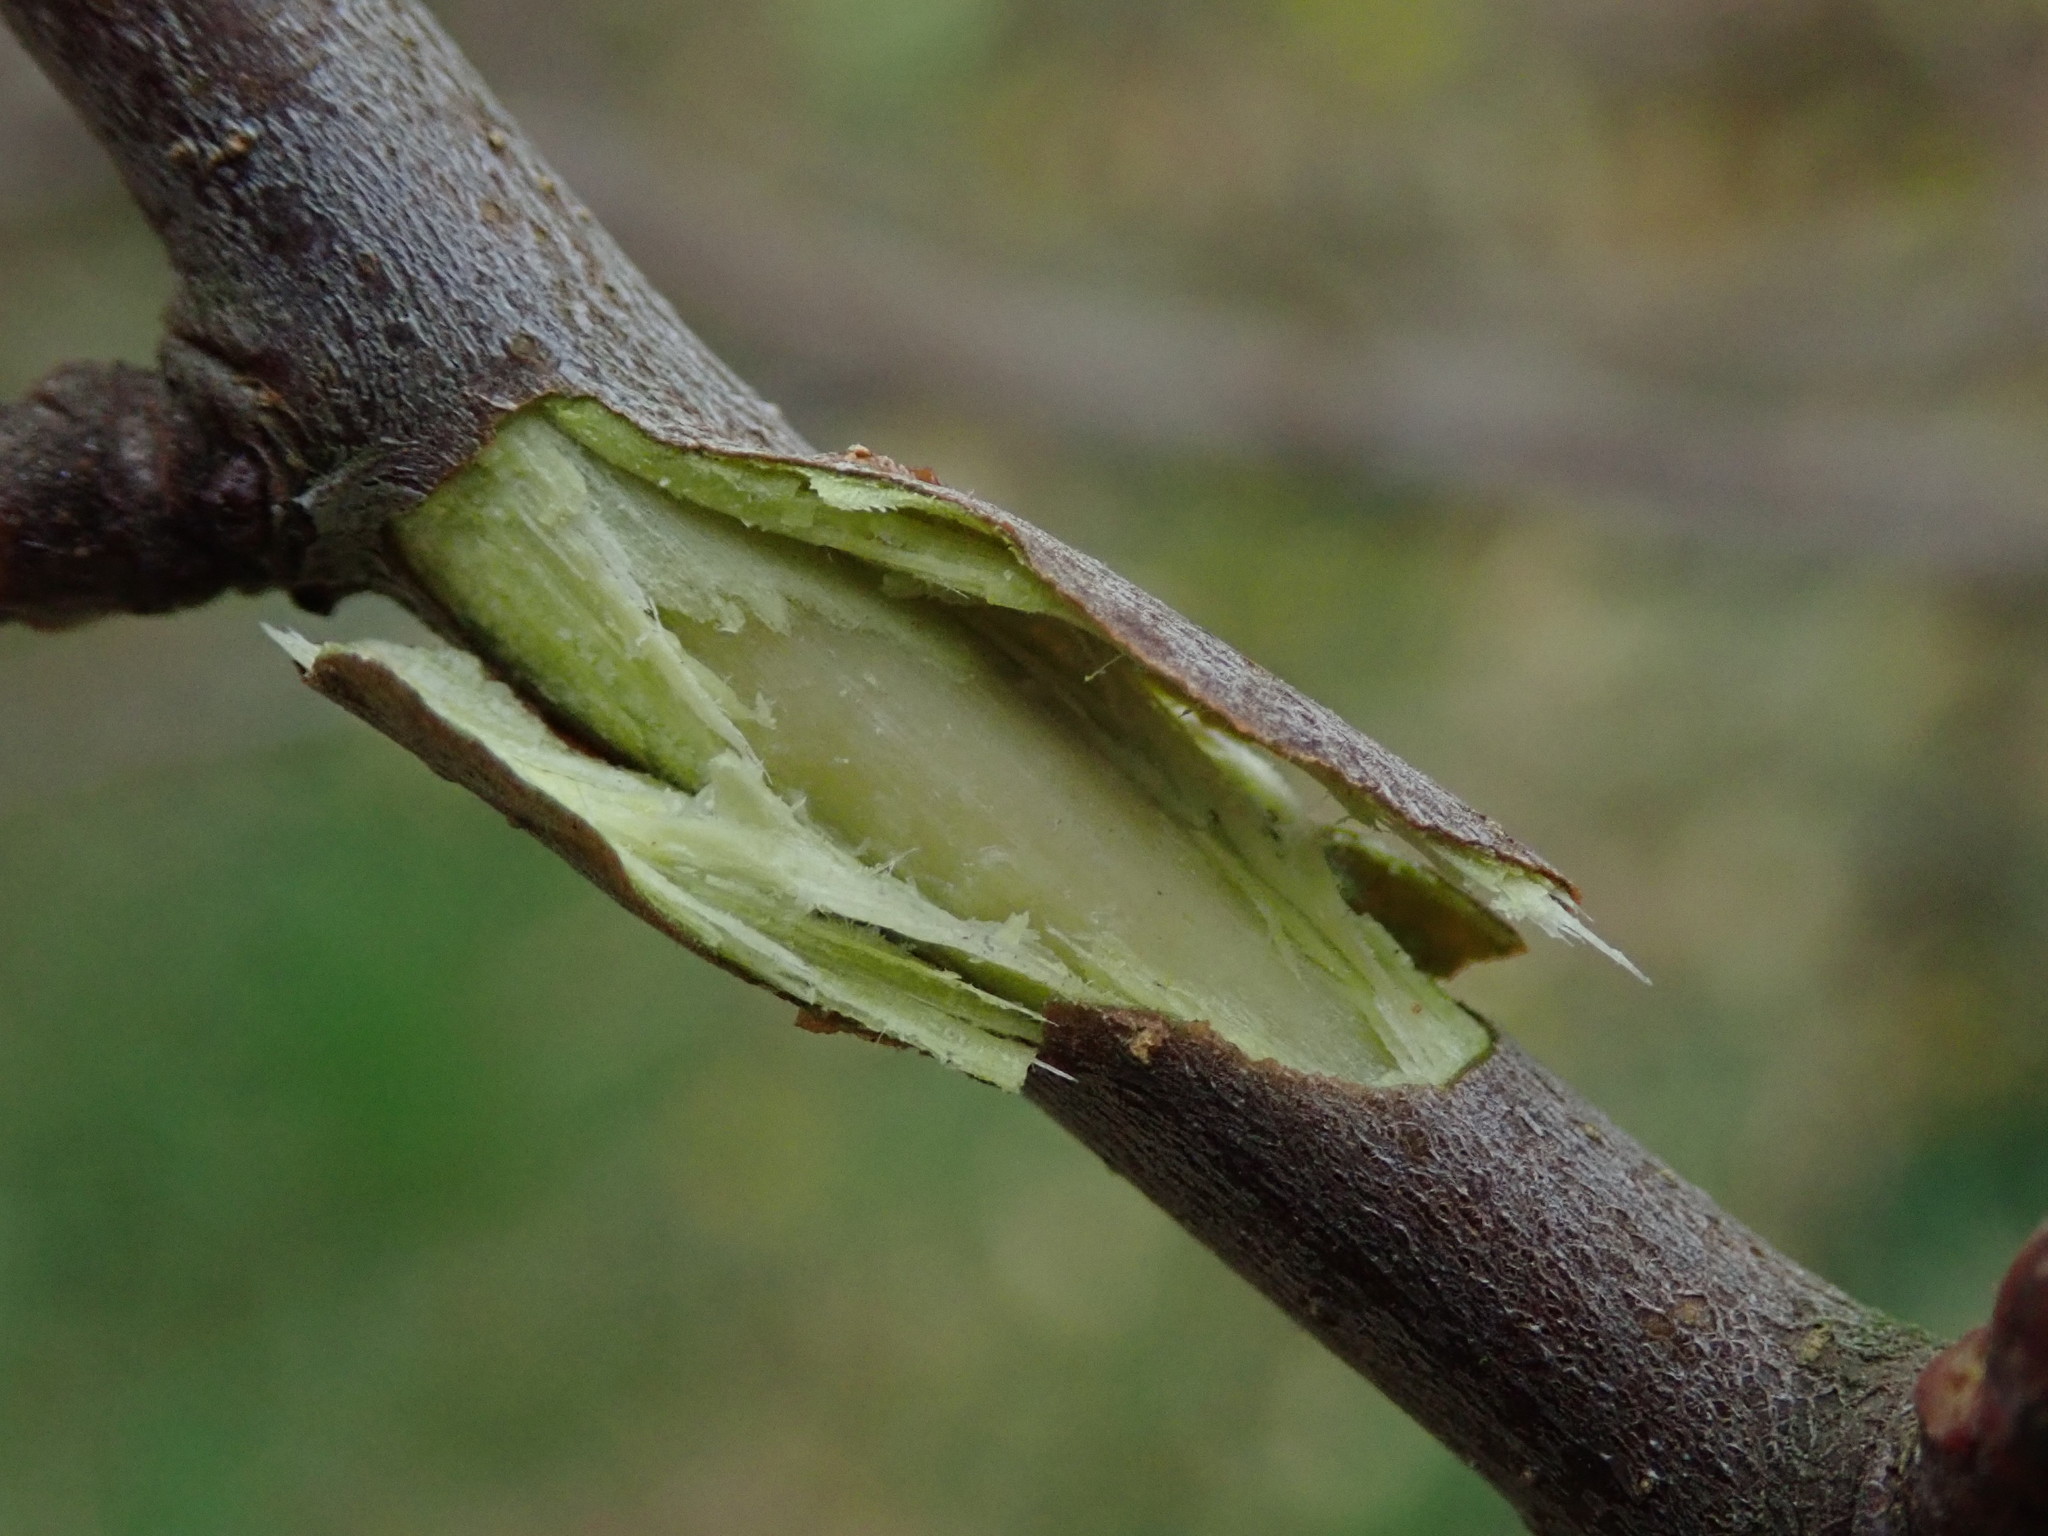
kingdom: Plantae
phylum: Tracheophyta
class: Magnoliopsida
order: Rosales
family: Rosaceae
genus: Malus
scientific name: Malus domestica
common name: Apple
